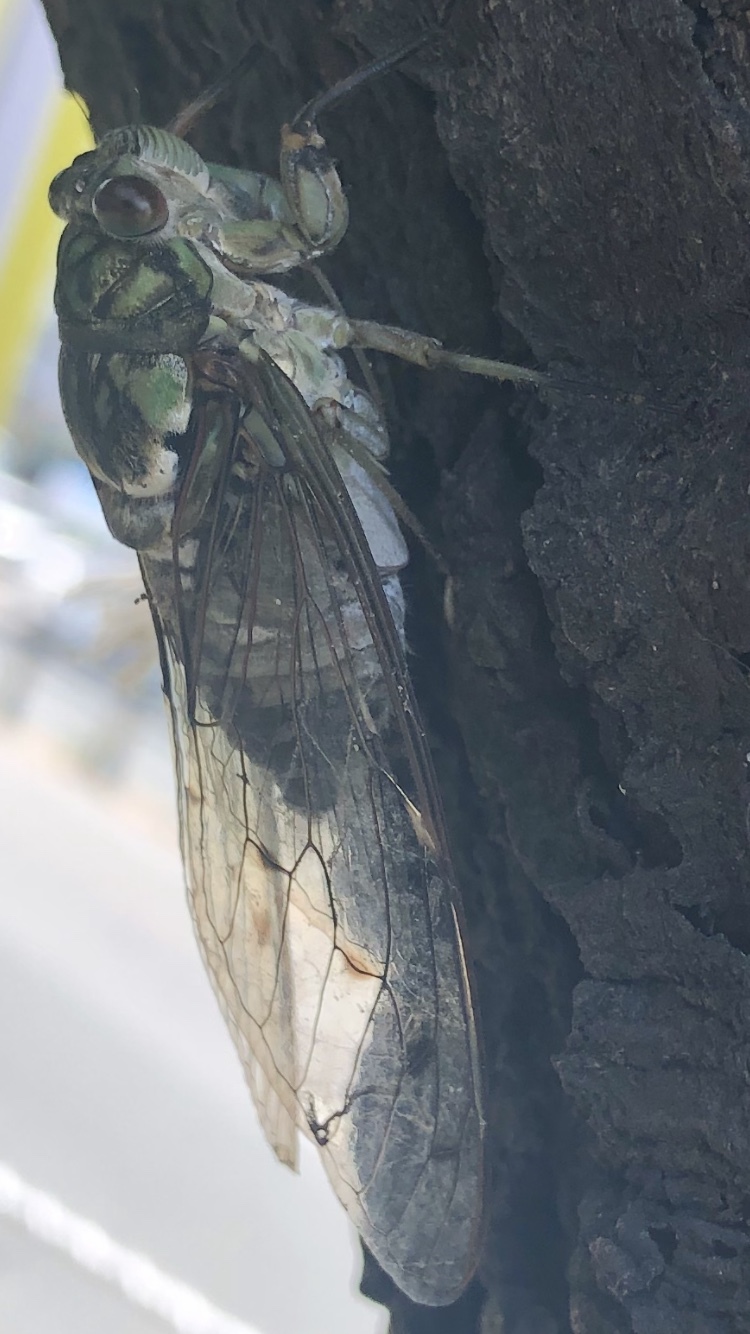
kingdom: Animalia
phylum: Arthropoda
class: Insecta
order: Hemiptera
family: Cicadidae
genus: Hyalessa
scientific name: Hyalessa maculaticollis
